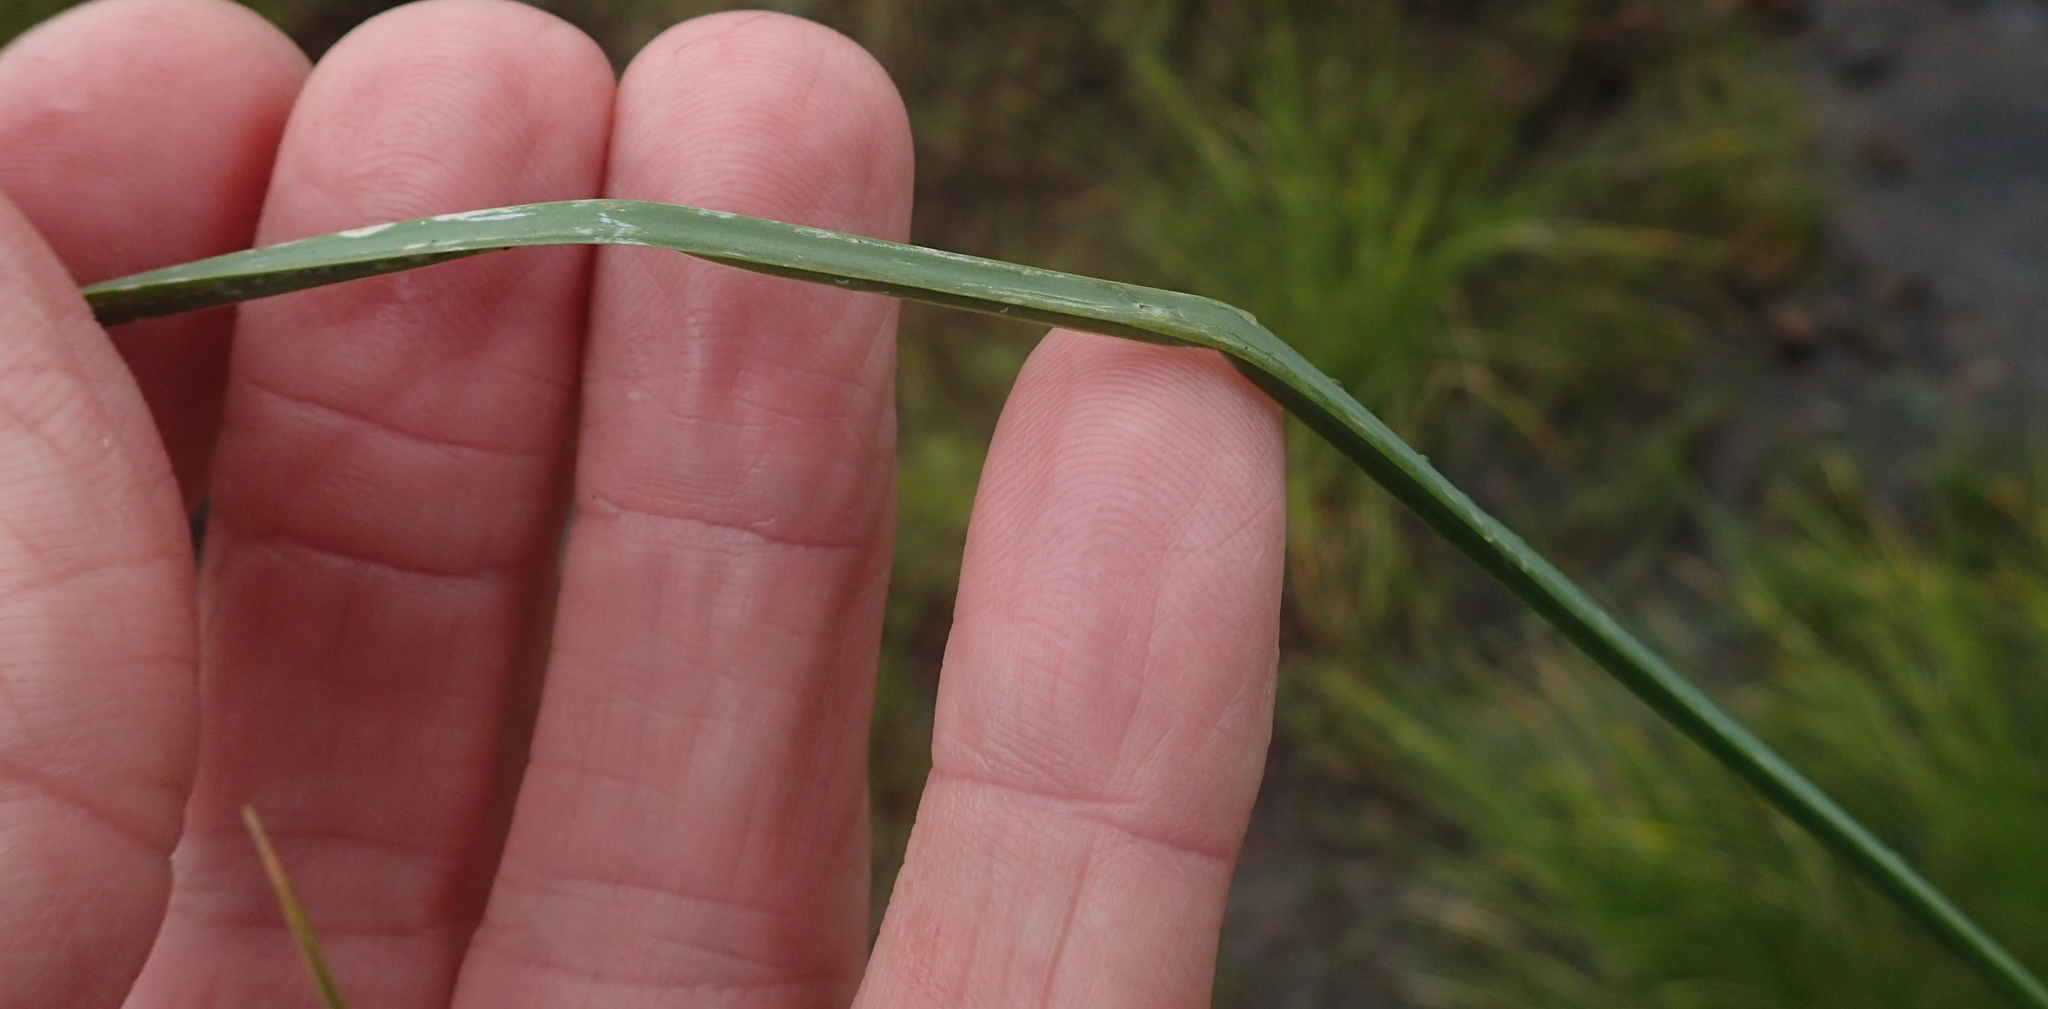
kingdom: Plantae
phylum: Tracheophyta
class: Liliopsida
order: Asparagales
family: Asphodelaceae
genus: Kniphofia
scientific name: Kniphofia angustifolia
